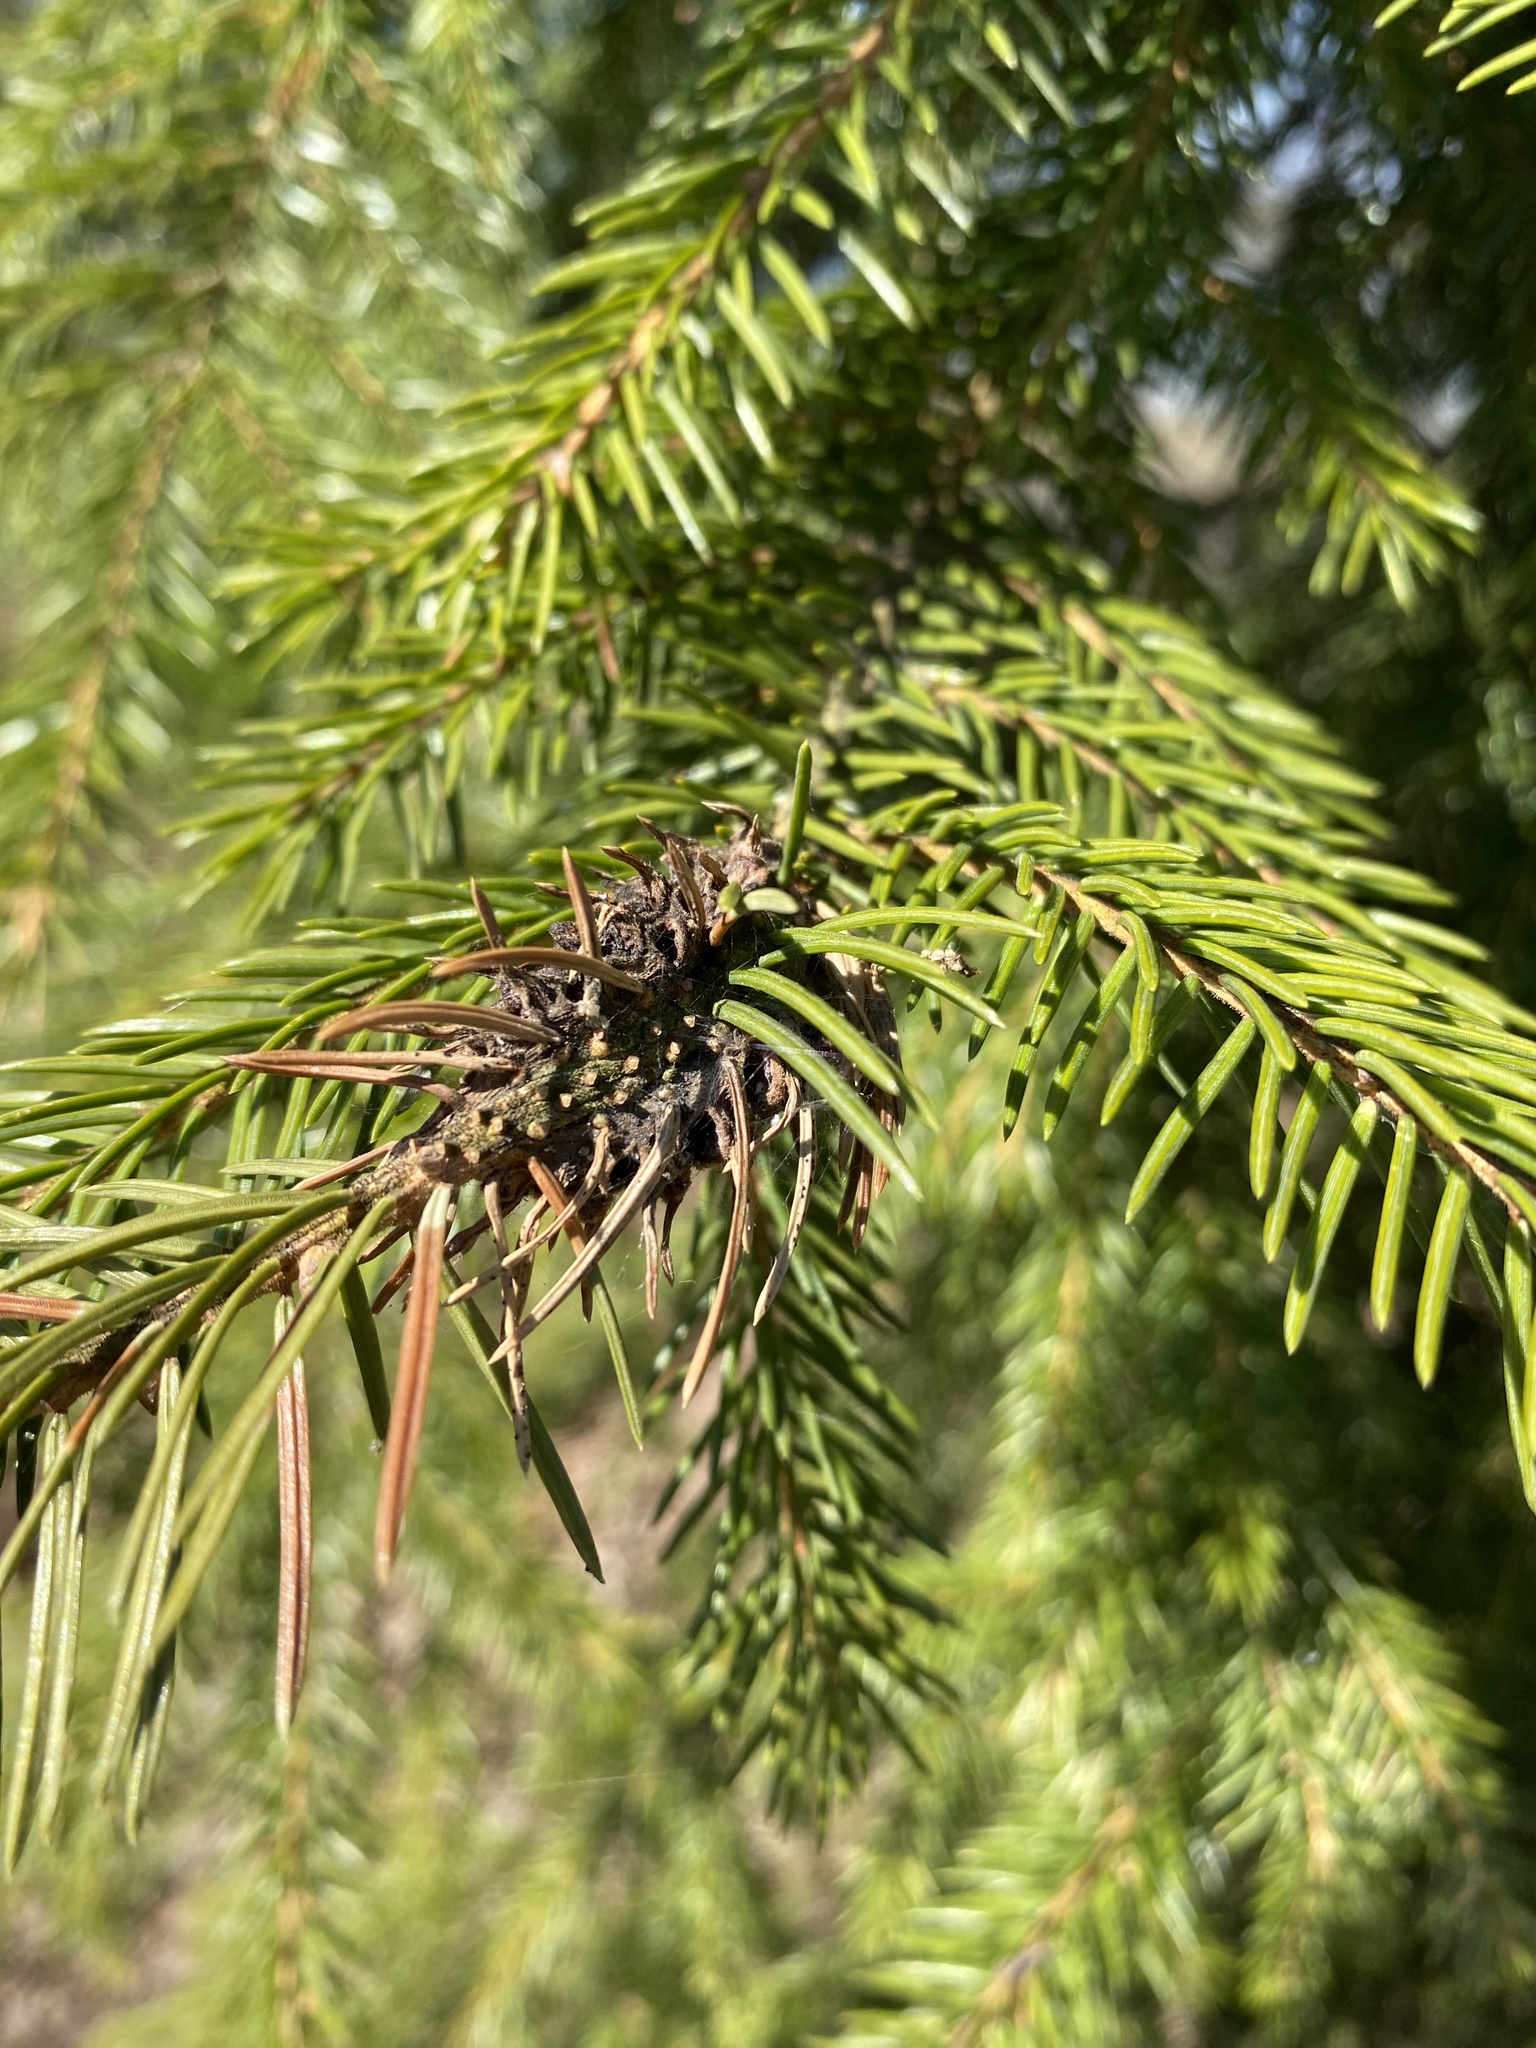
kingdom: Animalia
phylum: Arthropoda
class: Insecta
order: Hemiptera
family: Adelgidae
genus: Adelges
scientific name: Adelges abietis
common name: Eastern spruce gall adelgid
